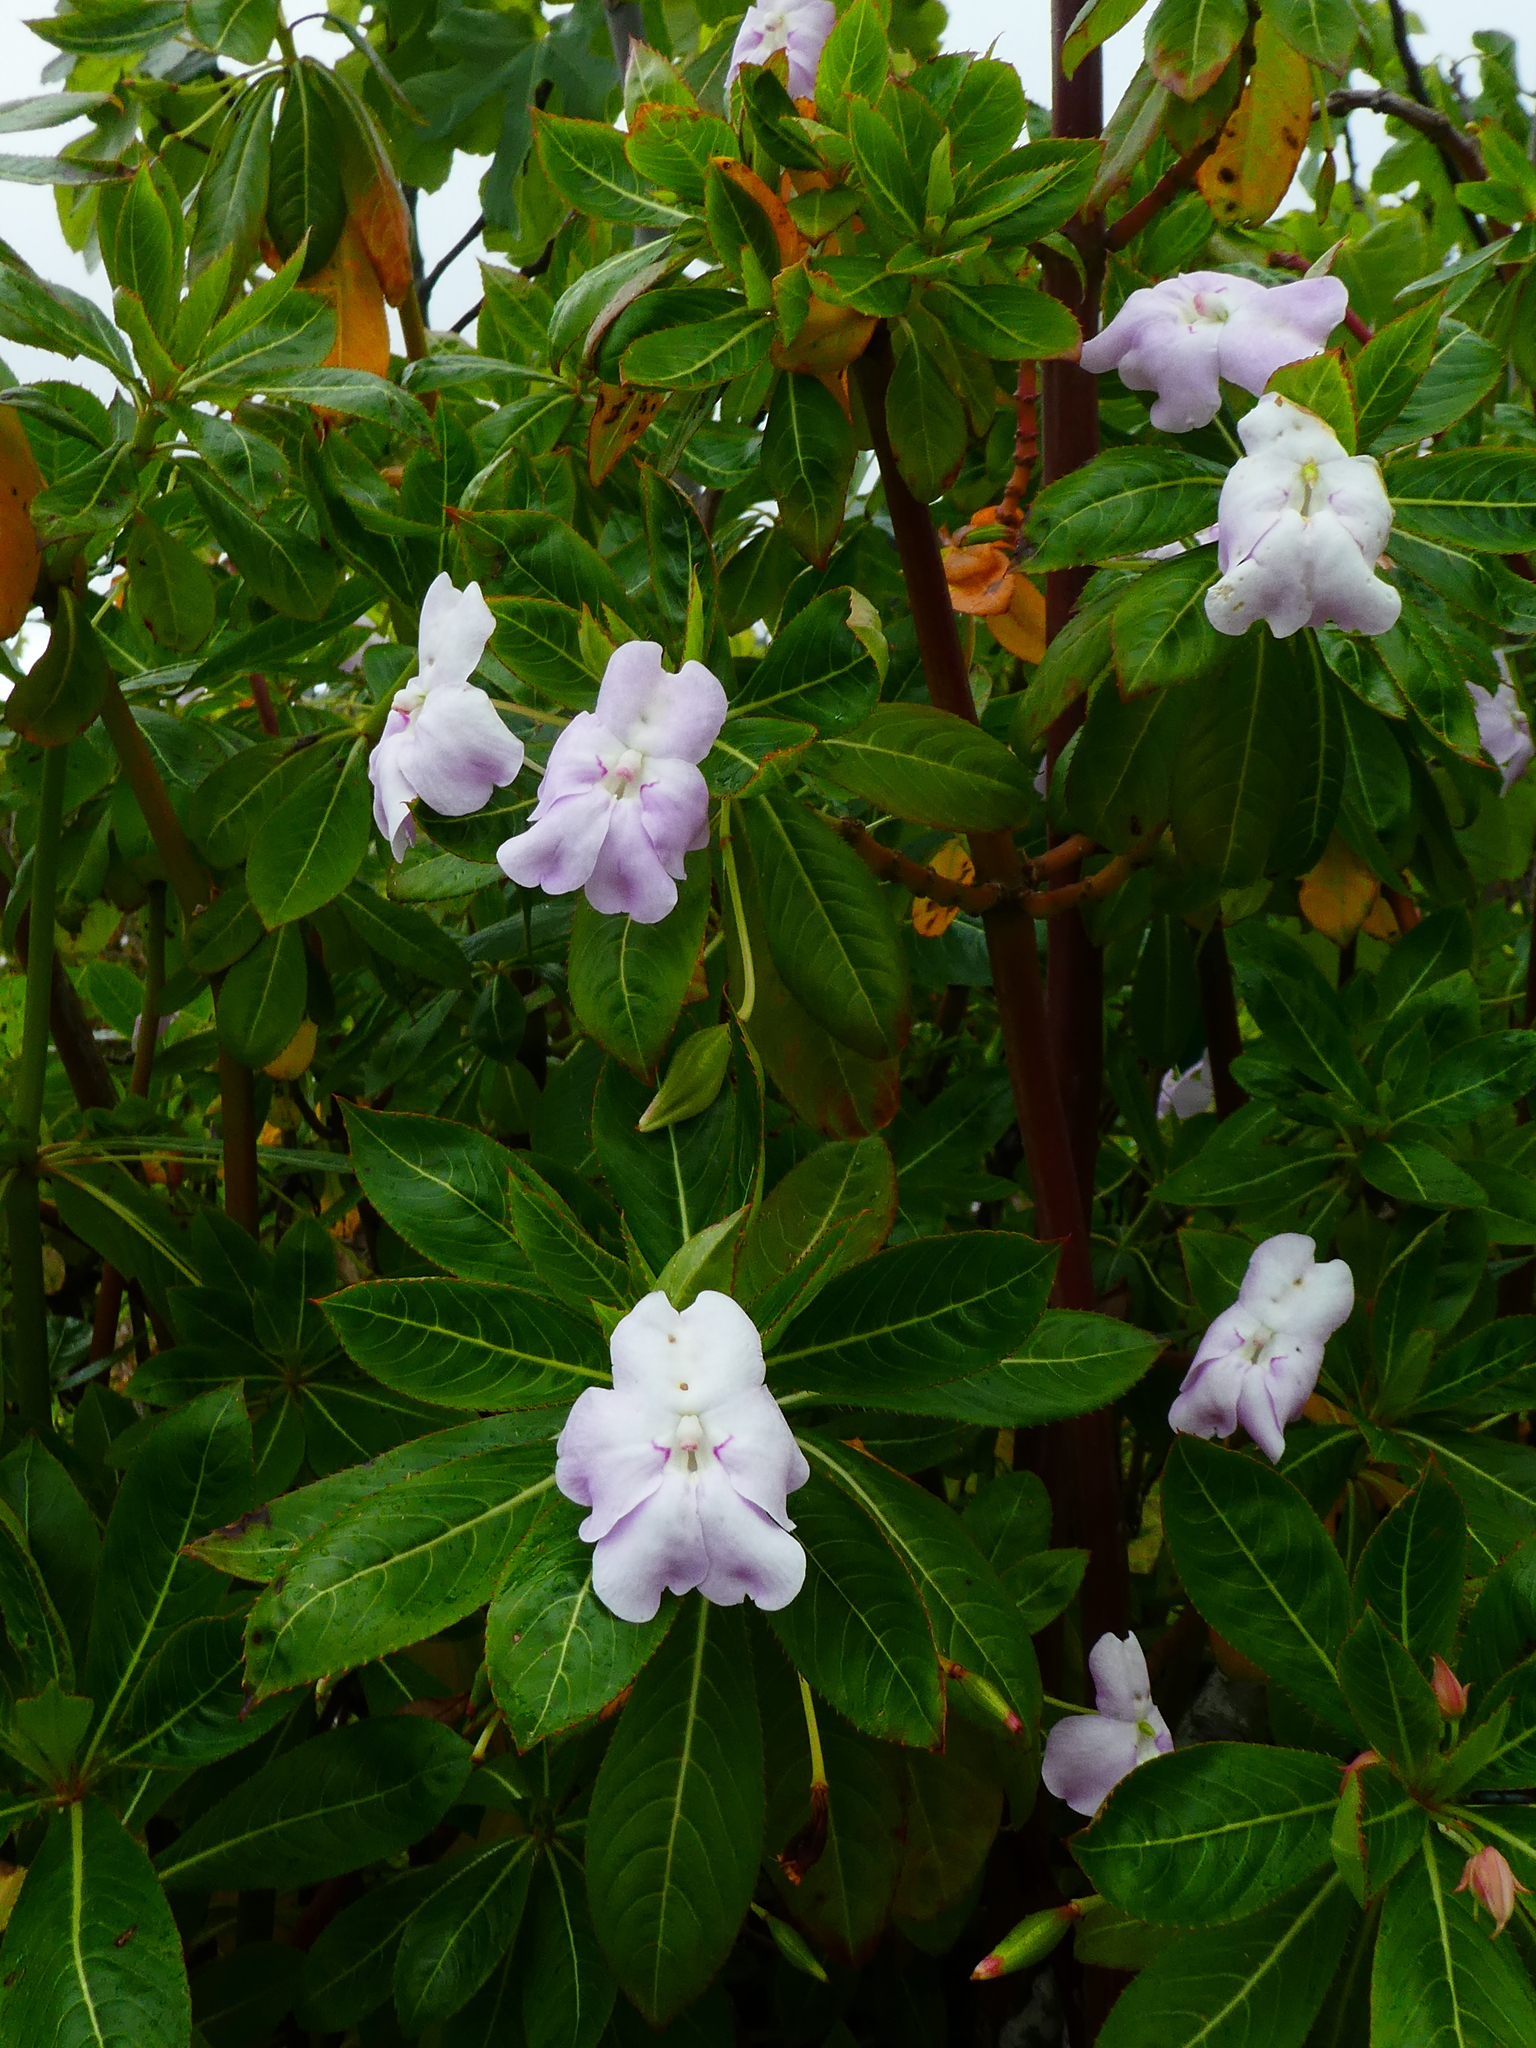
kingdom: Plantae
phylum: Tracheophyta
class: Magnoliopsida
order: Ericales
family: Balsaminaceae
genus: Impatiens
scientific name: Impatiens sodenii
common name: Oliver's touch-me-not
